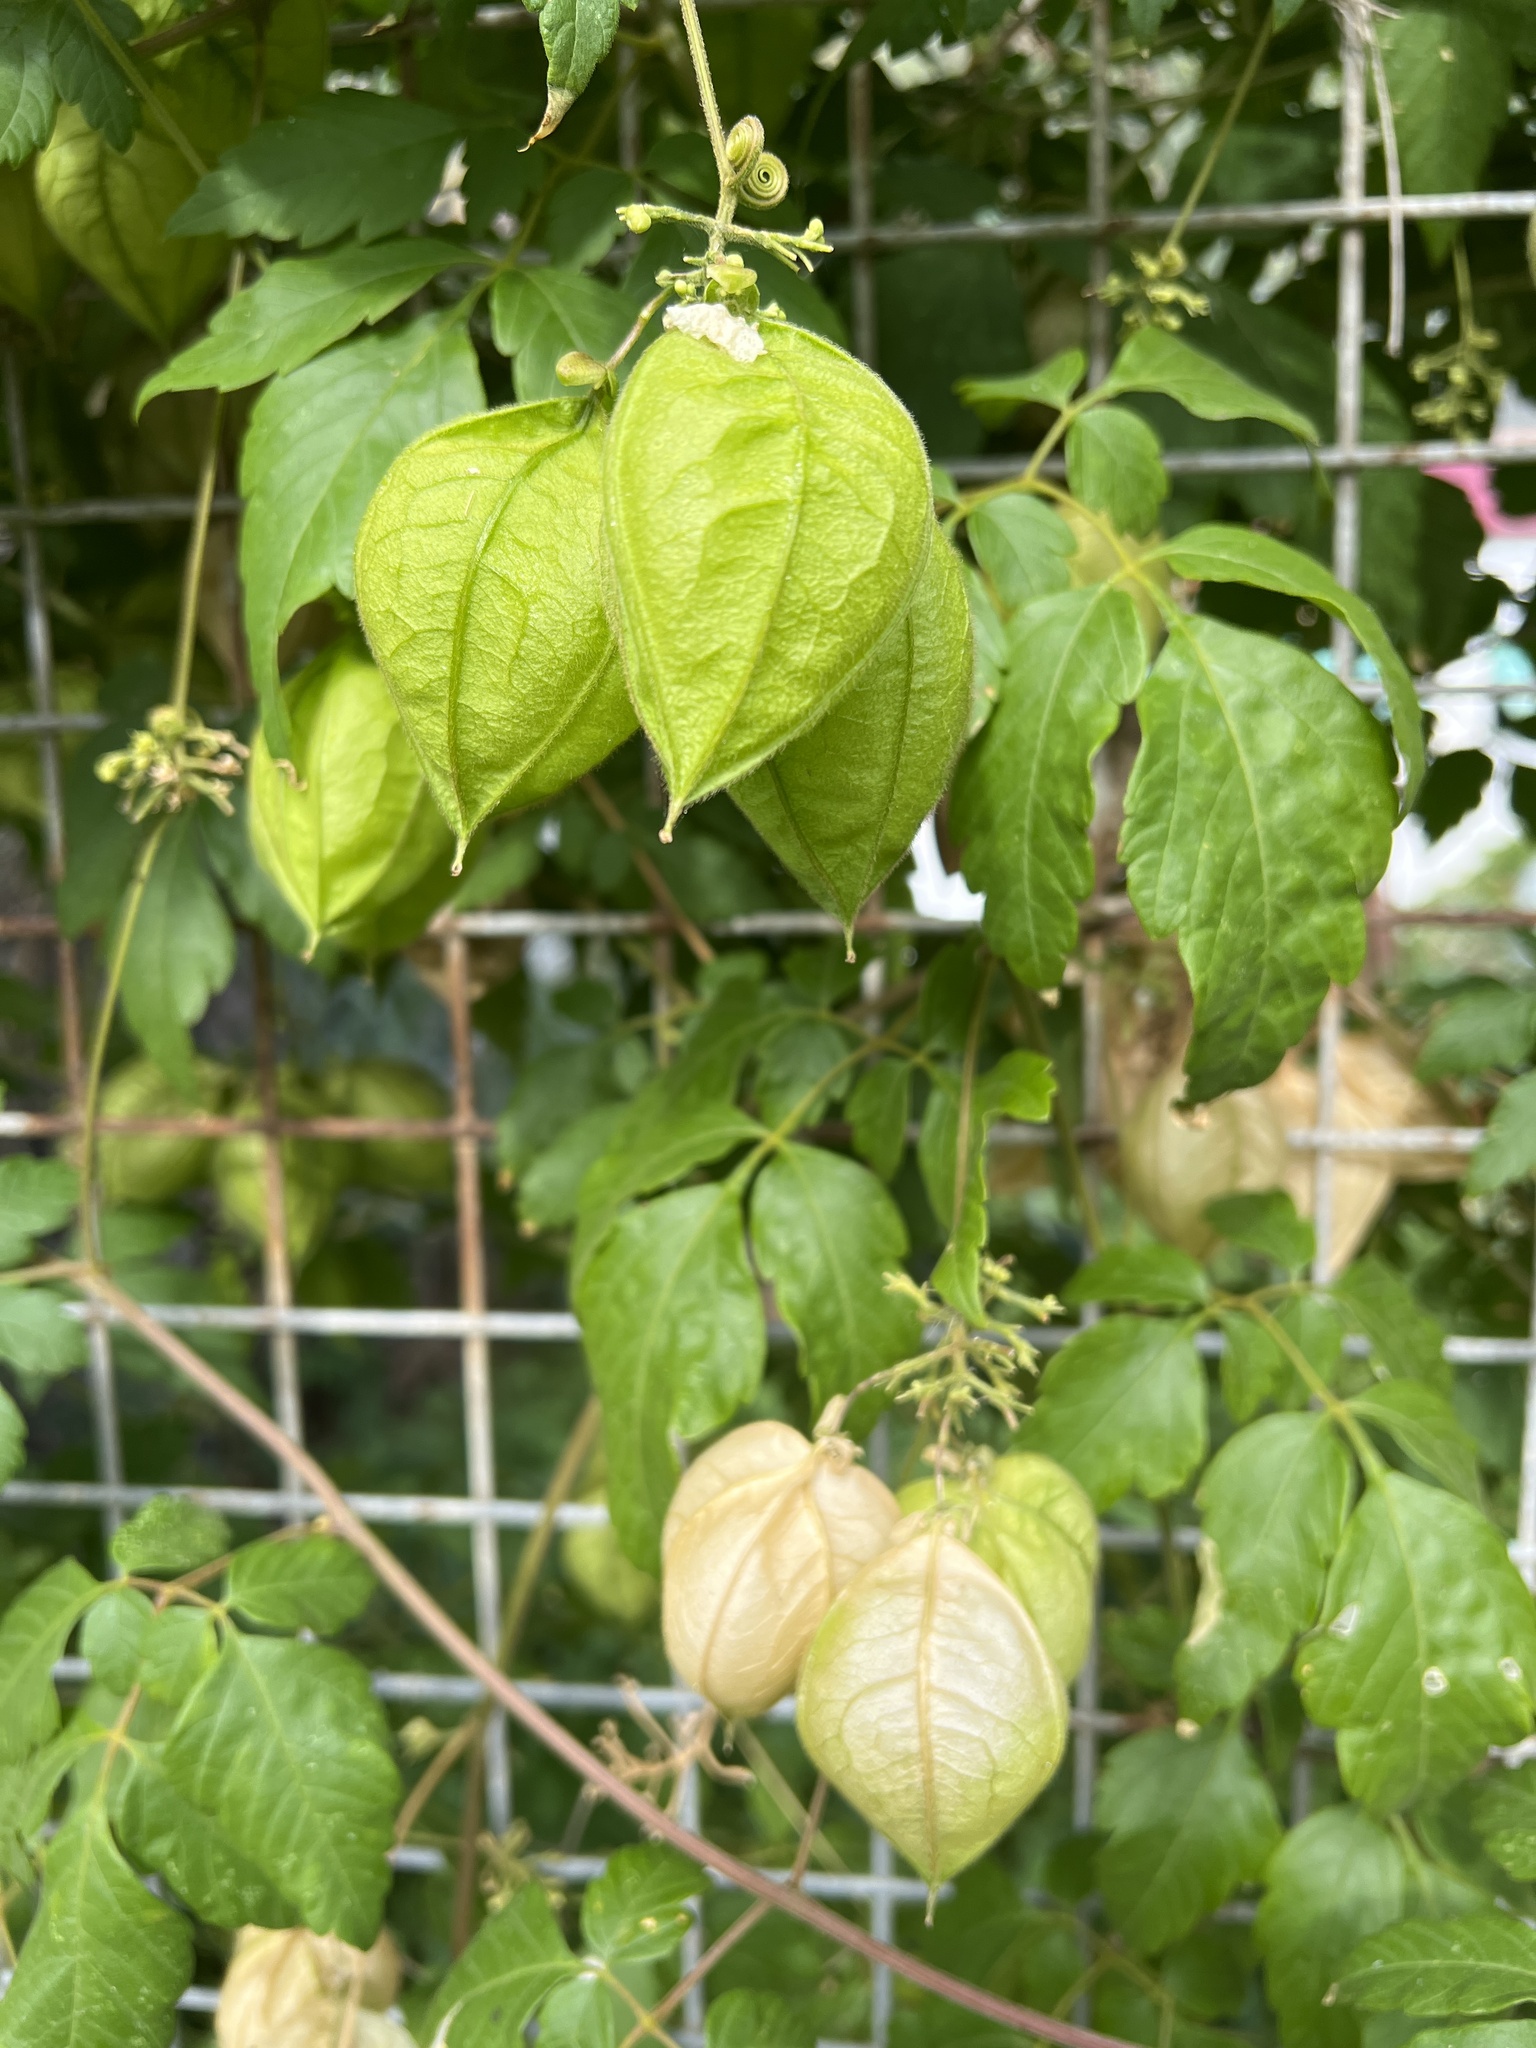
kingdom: Plantae
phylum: Tracheophyta
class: Magnoliopsida
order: Sapindales
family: Sapindaceae
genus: Cardiospermum
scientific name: Cardiospermum grandiflorum
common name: Balloon vine
